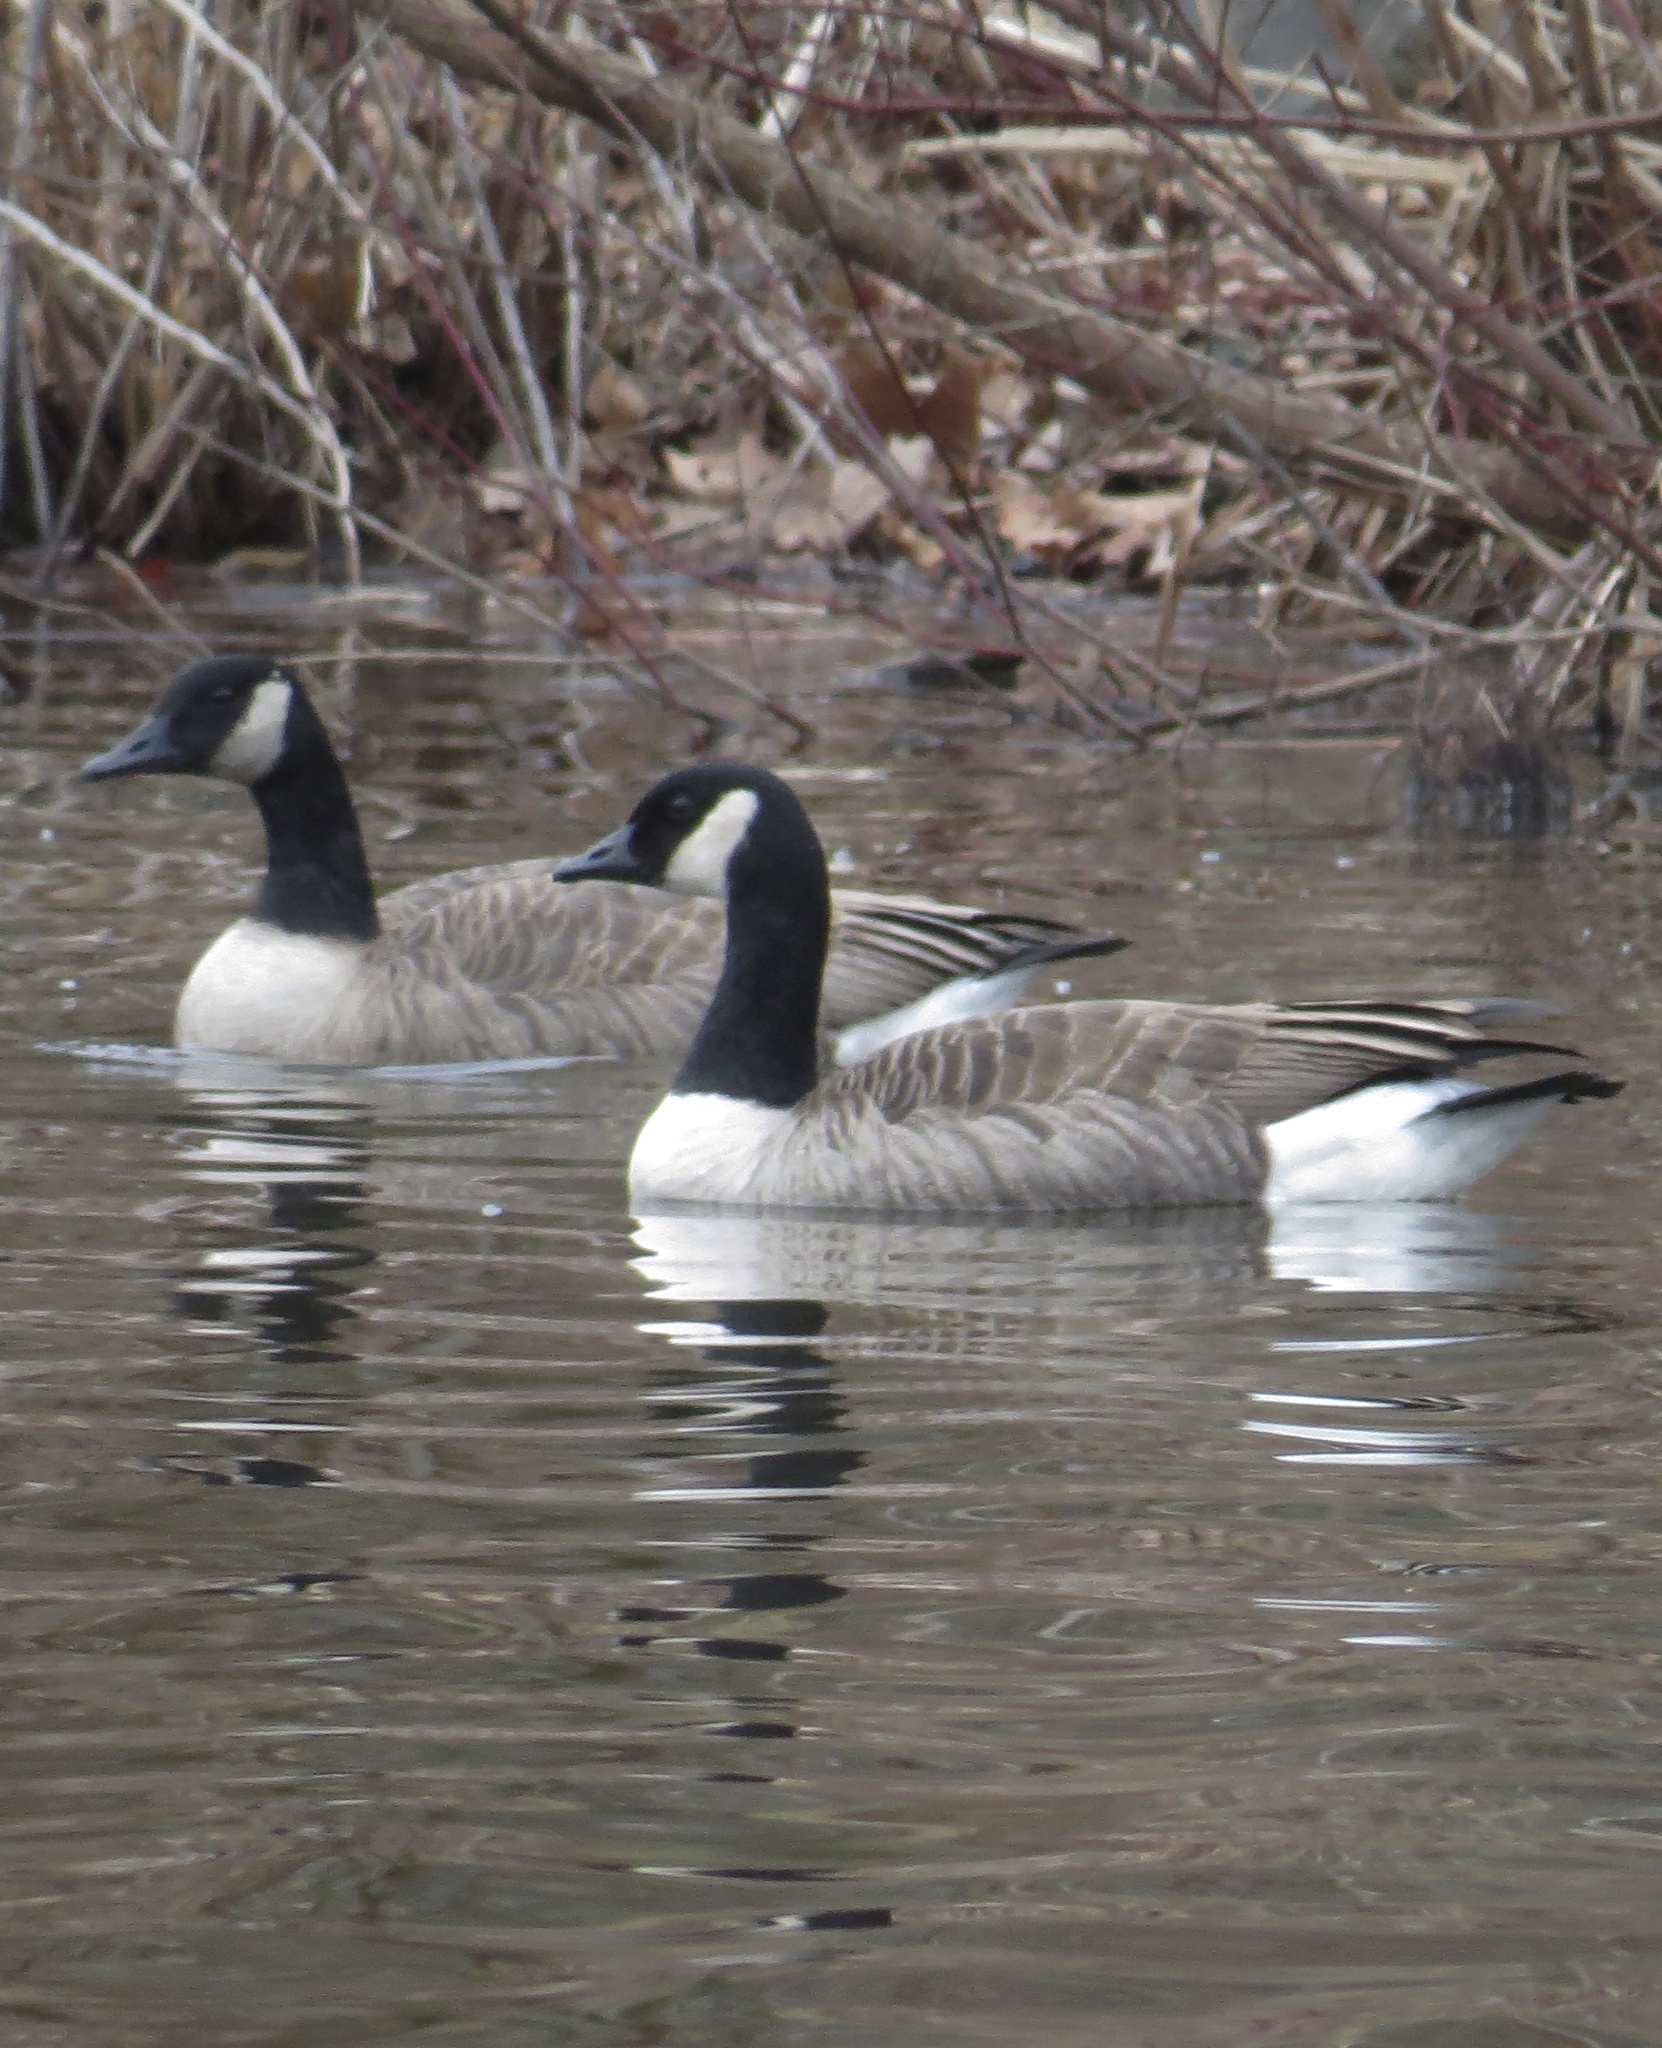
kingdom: Animalia
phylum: Chordata
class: Aves
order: Anseriformes
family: Anatidae
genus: Branta
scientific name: Branta canadensis
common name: Canada goose
